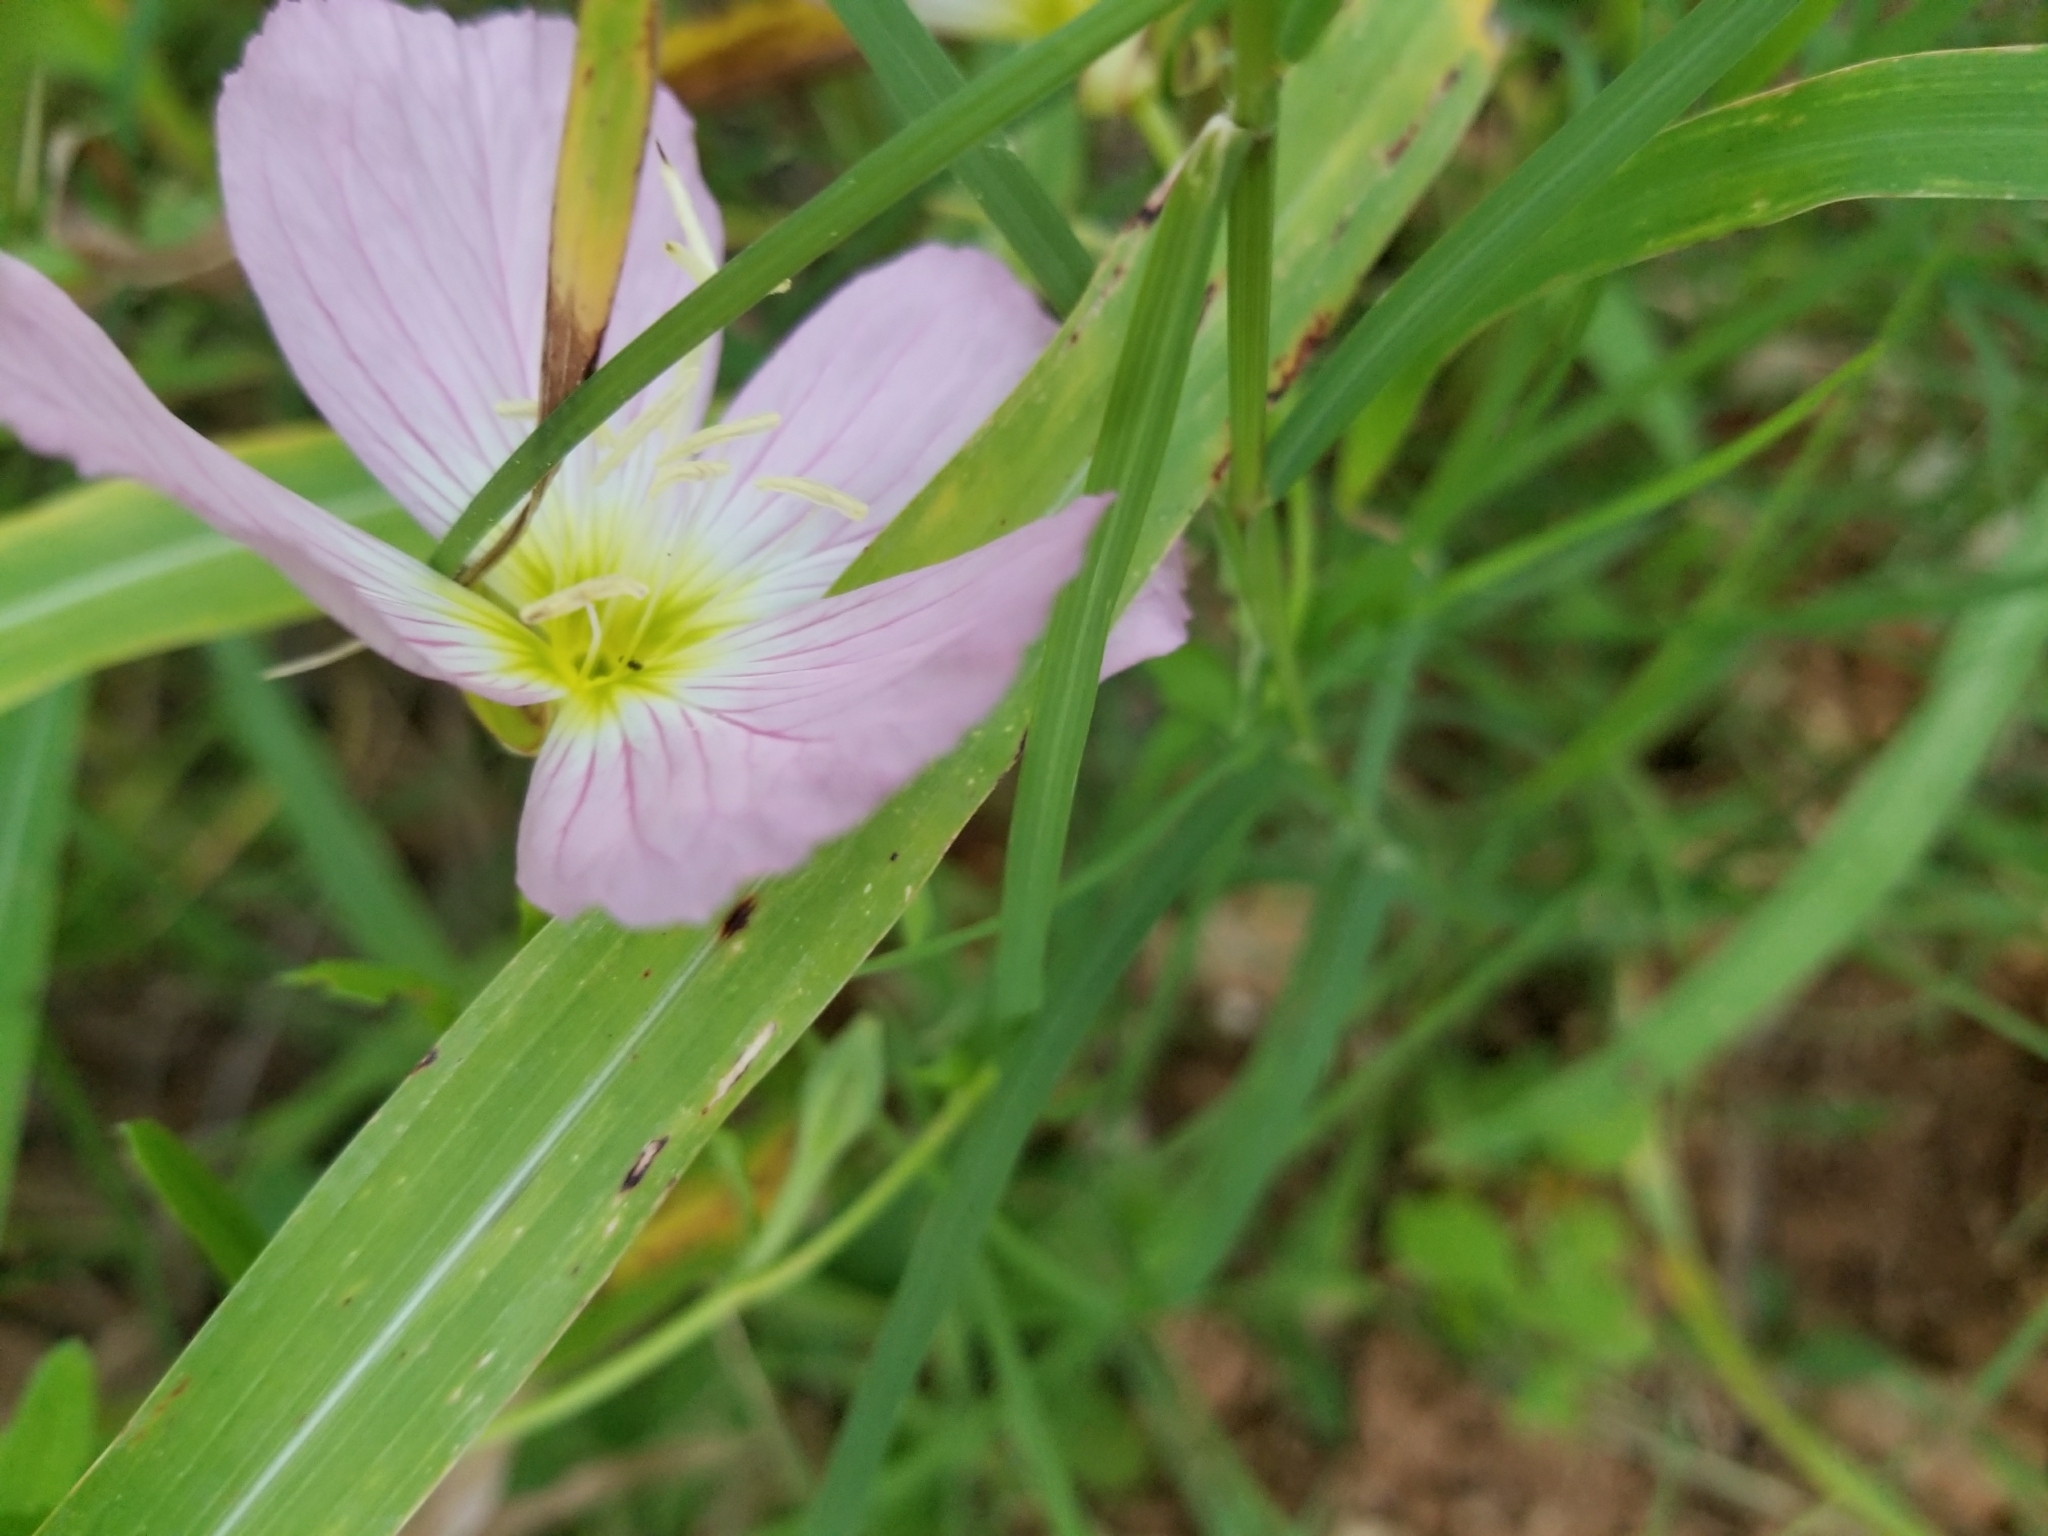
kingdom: Plantae
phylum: Tracheophyta
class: Magnoliopsida
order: Myrtales
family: Onagraceae
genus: Oenothera
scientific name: Oenothera speciosa
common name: White evening-primrose
